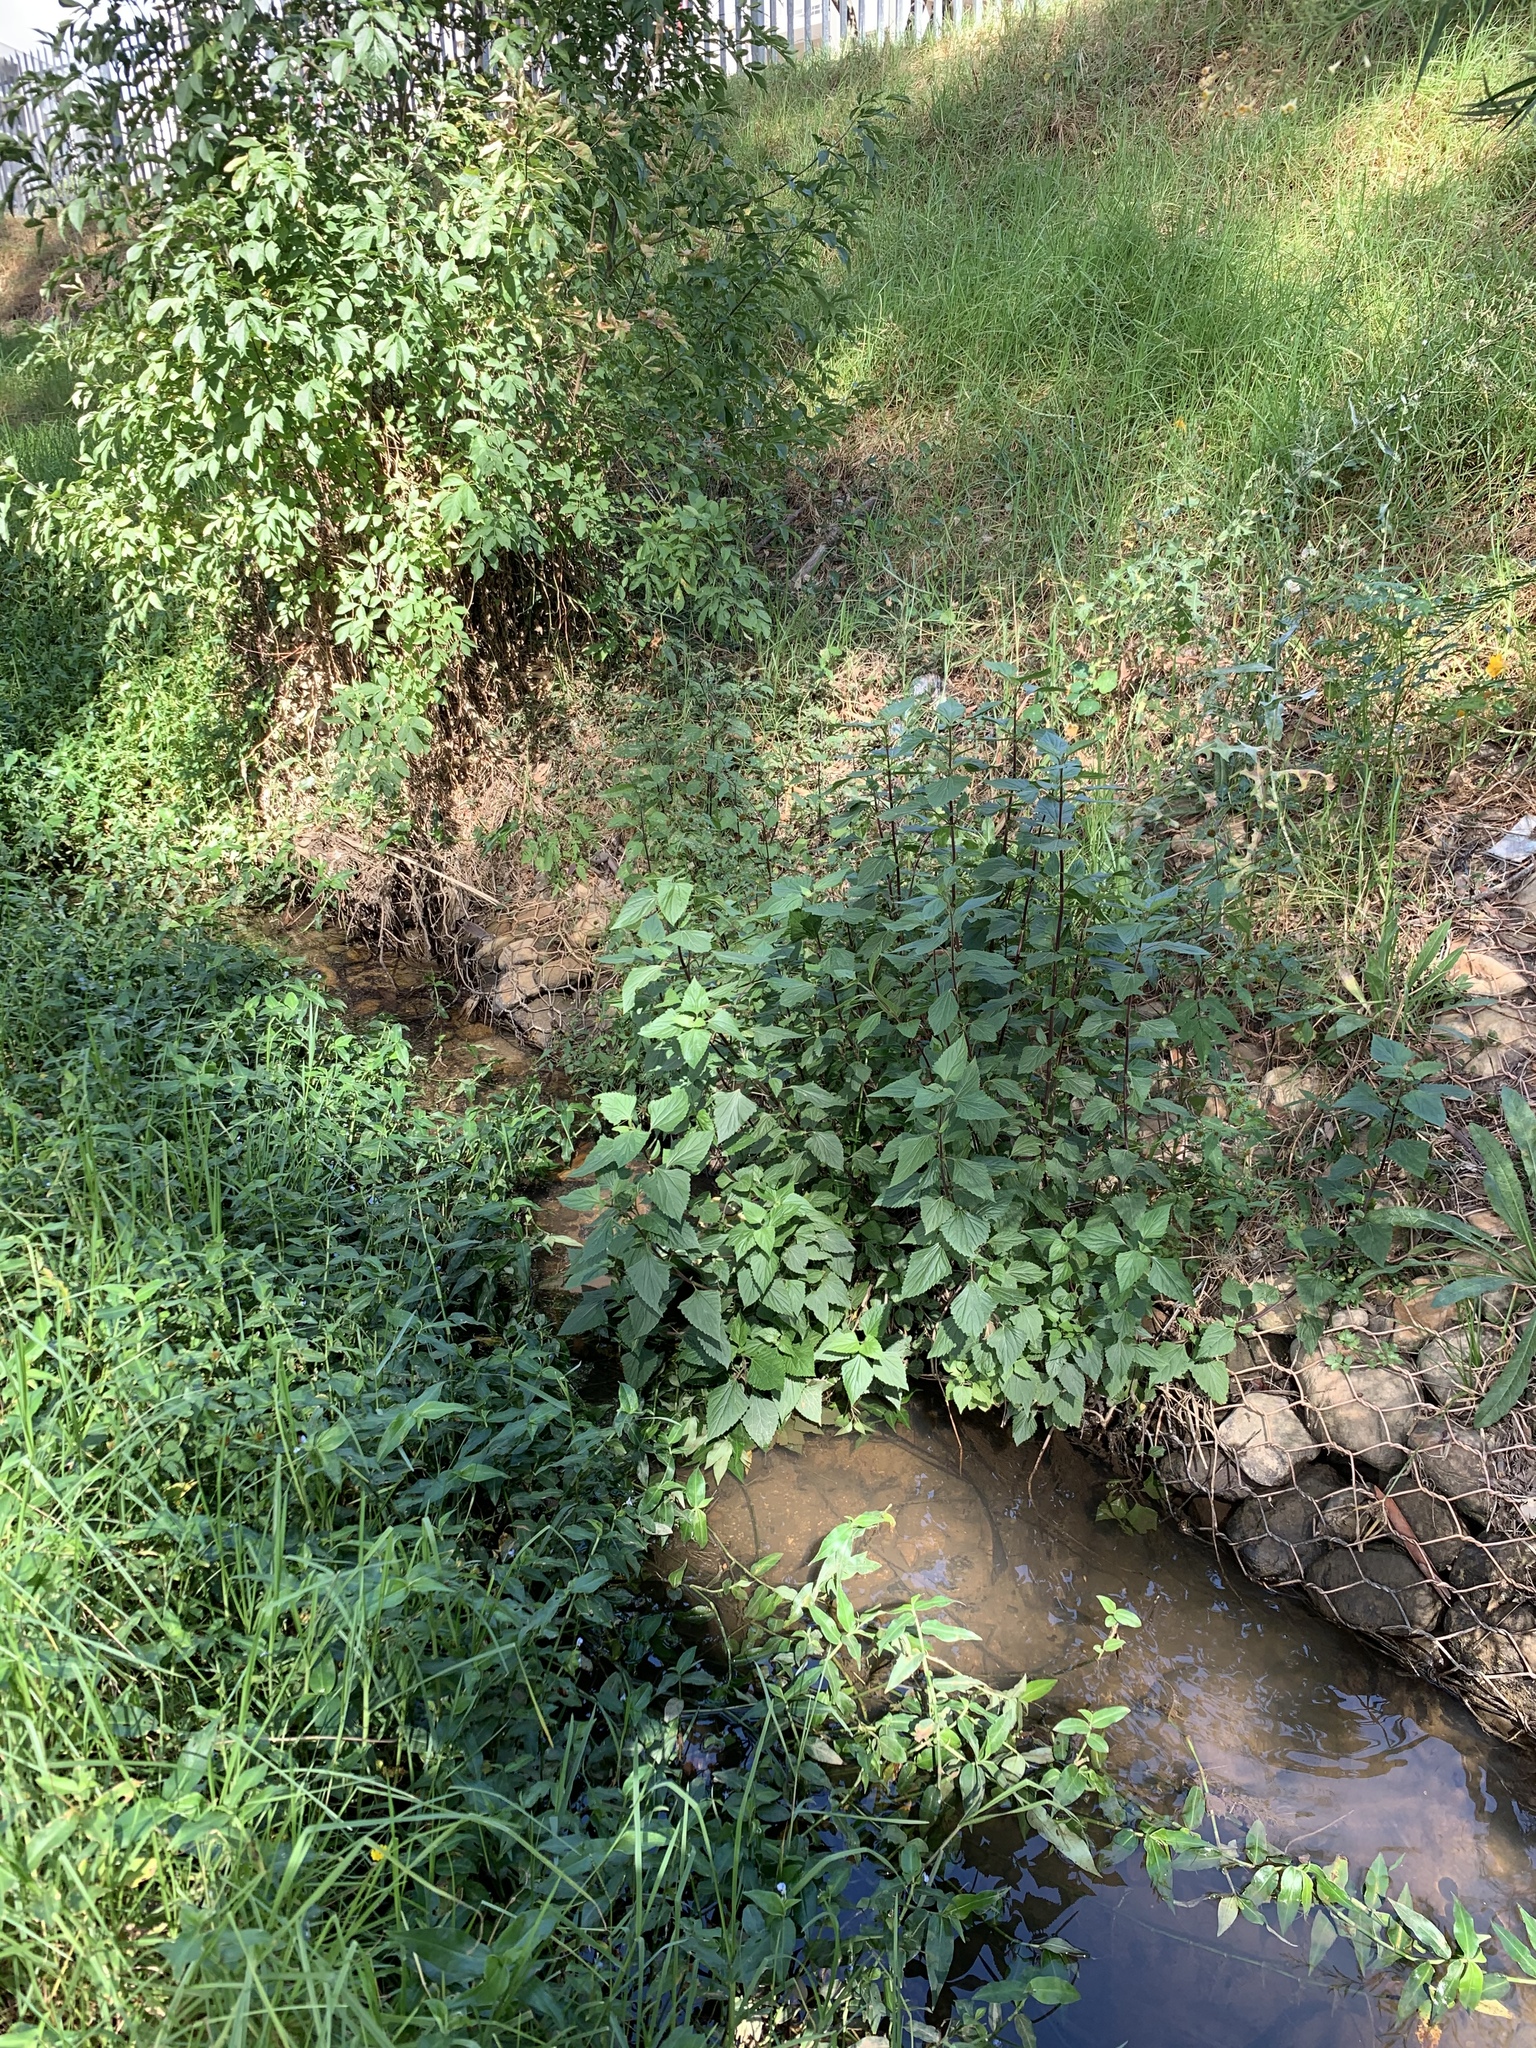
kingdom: Plantae
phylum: Tracheophyta
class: Magnoliopsida
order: Asterales
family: Asteraceae
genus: Ageratina
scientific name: Ageratina adenophora
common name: Sticky snakeroot
